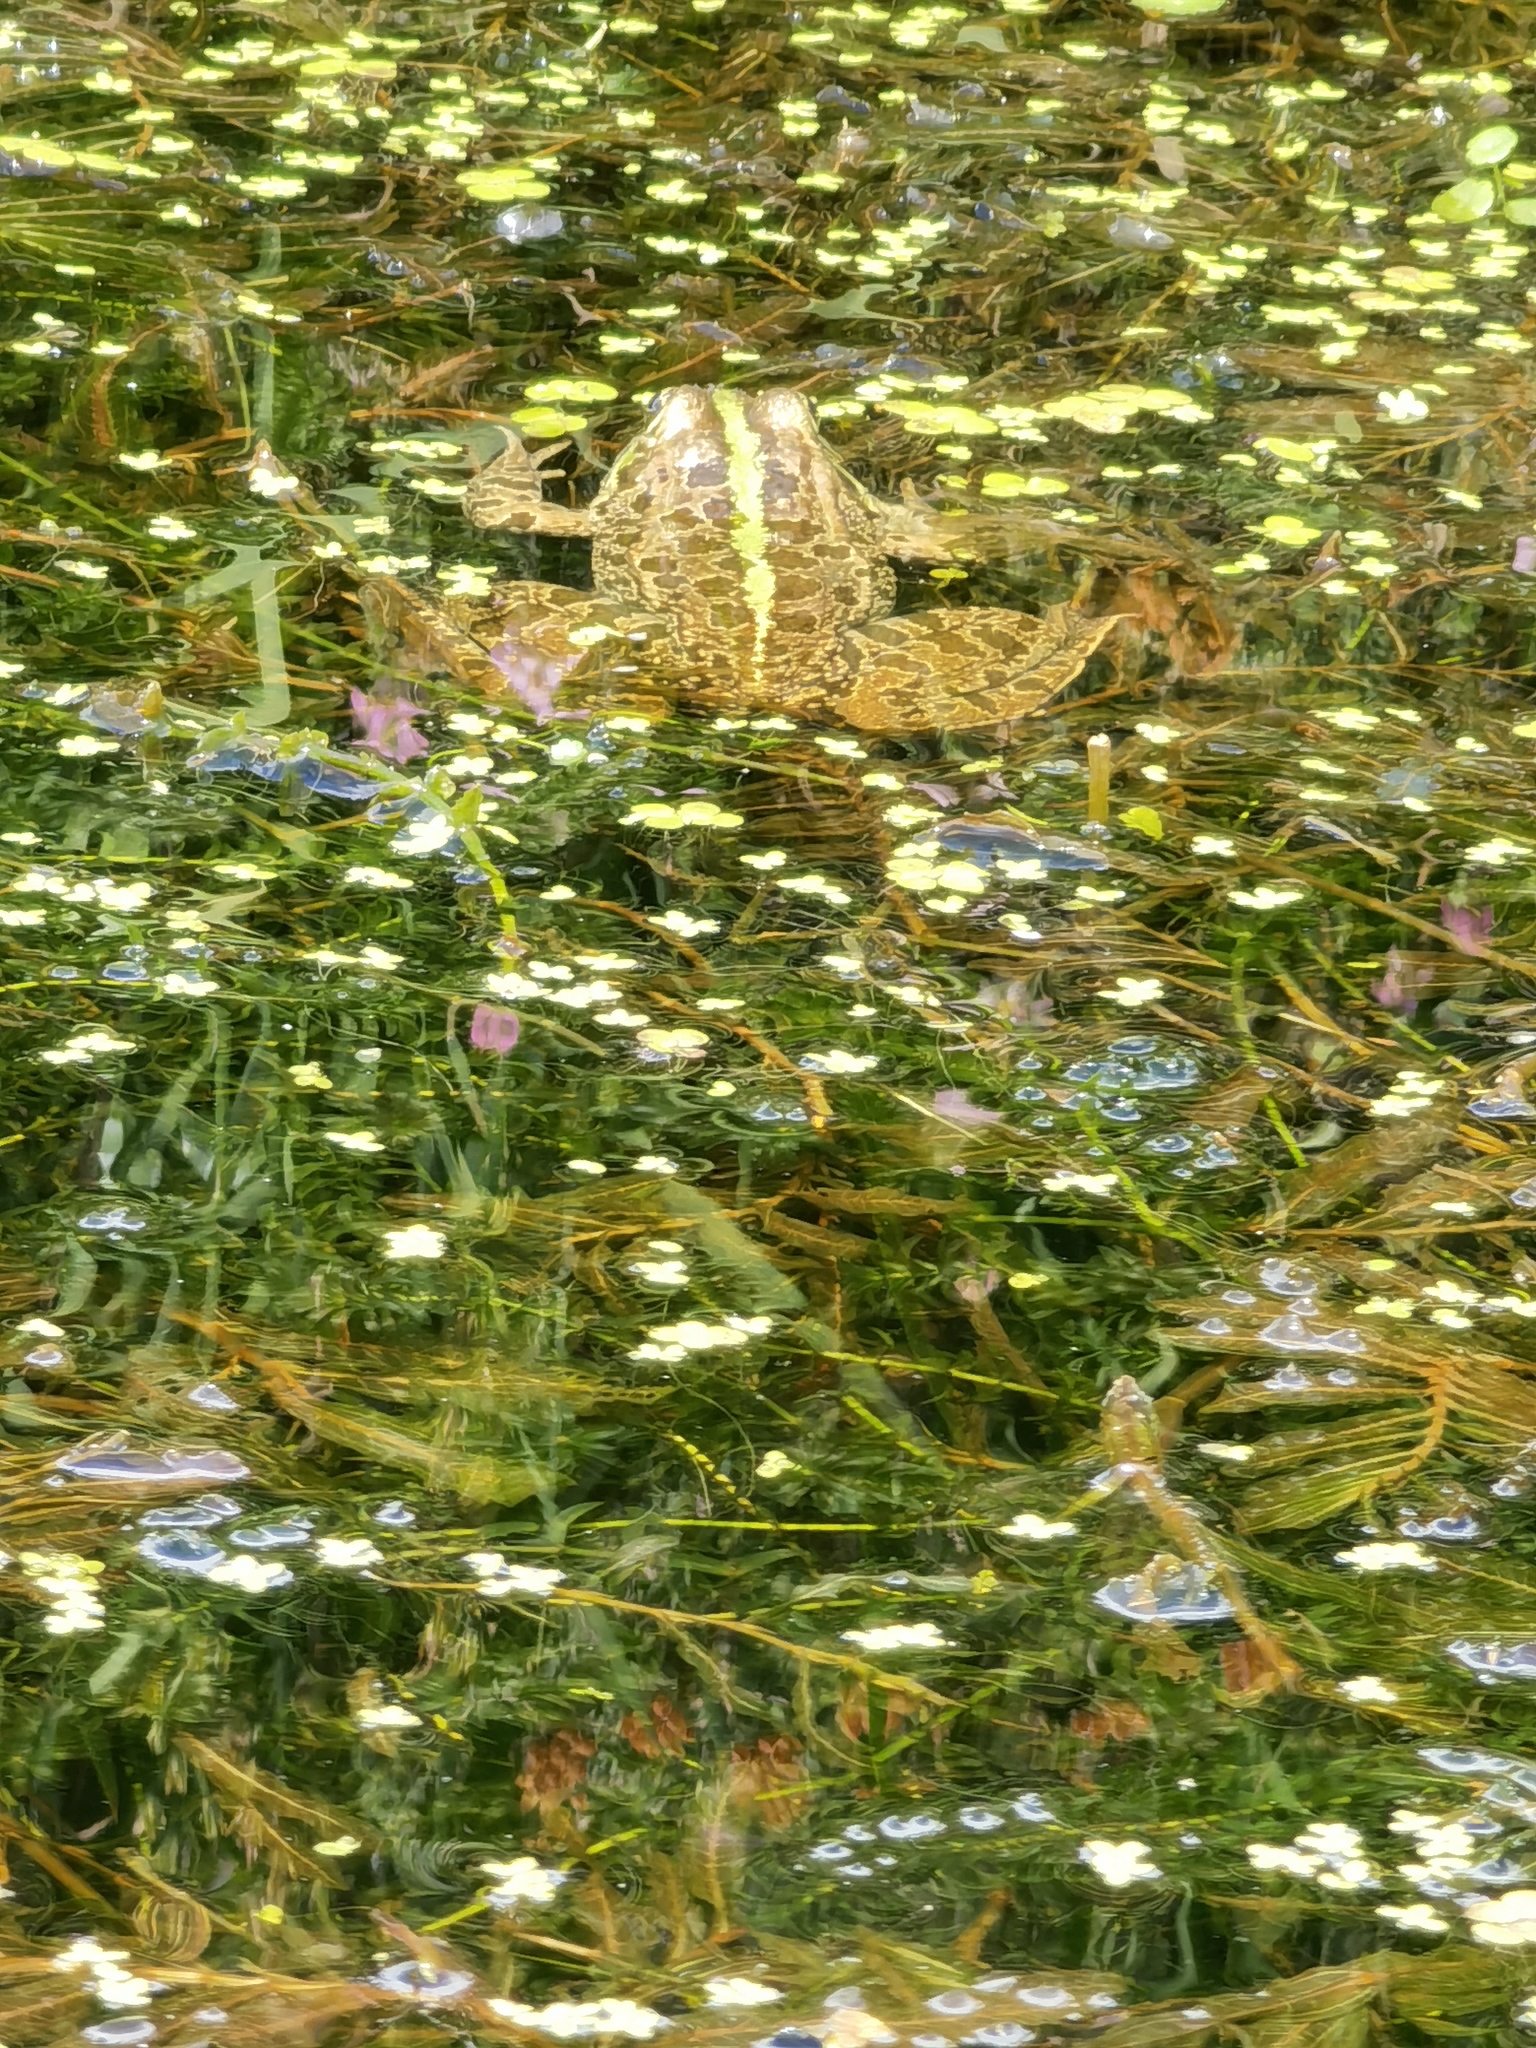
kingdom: Animalia
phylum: Chordata
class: Amphibia
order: Anura
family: Ranidae
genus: Pelophylax
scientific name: Pelophylax
